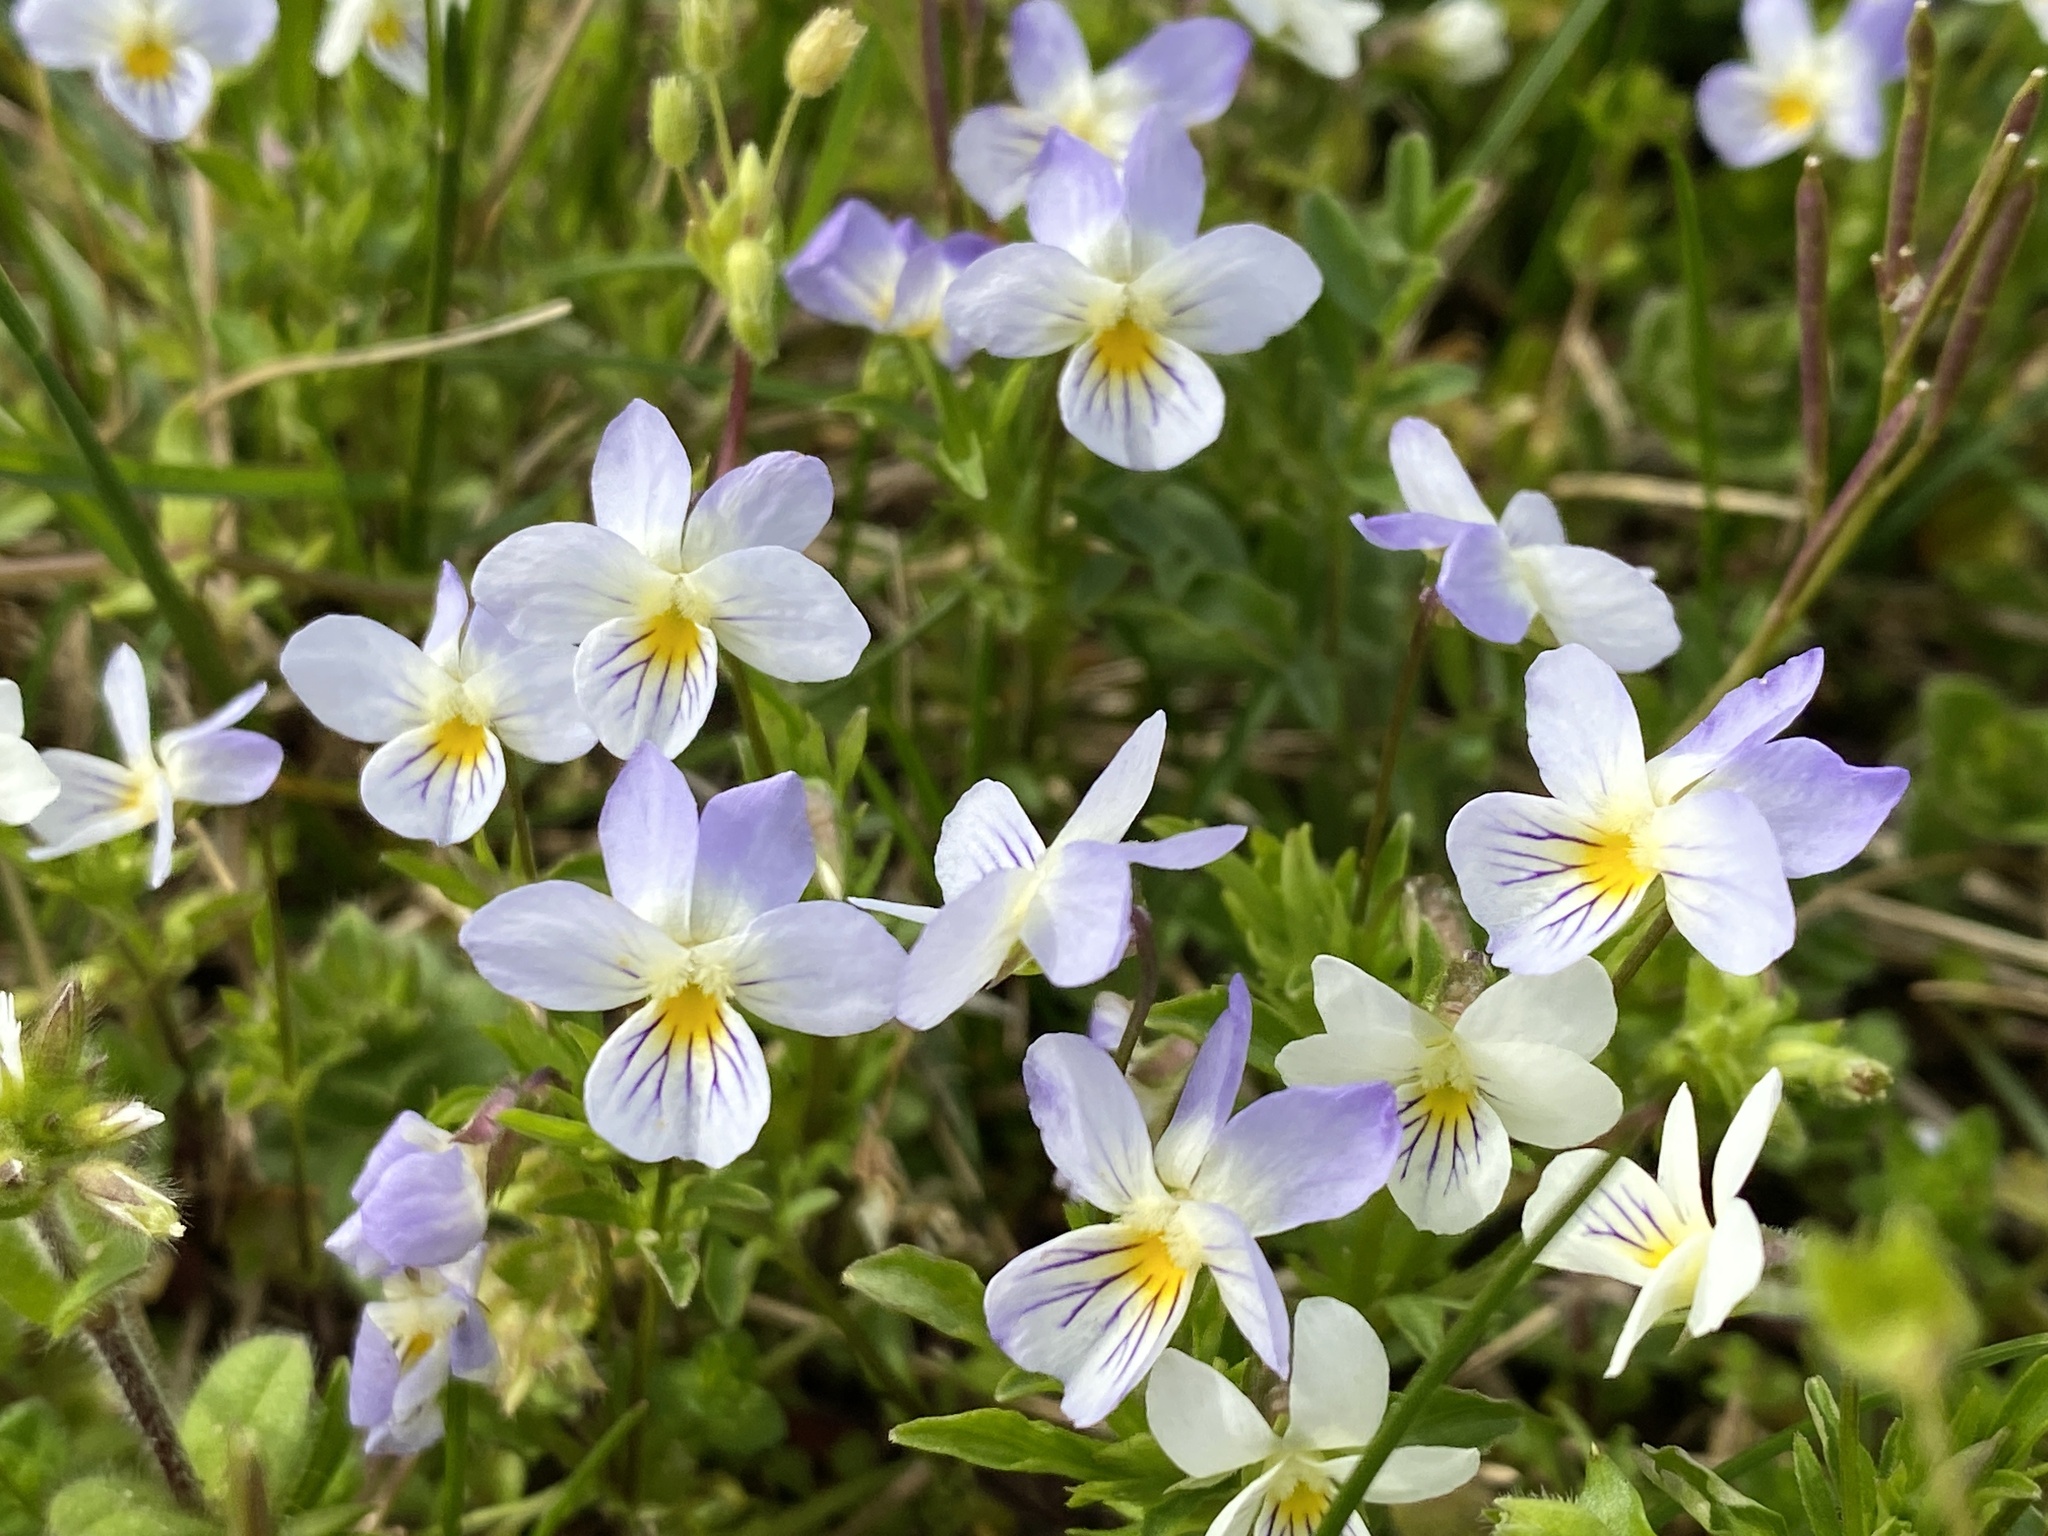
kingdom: Plantae
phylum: Tracheophyta
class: Magnoliopsida
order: Malpighiales
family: Violaceae
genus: Viola
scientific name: Viola rafinesquei
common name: American field pansy
